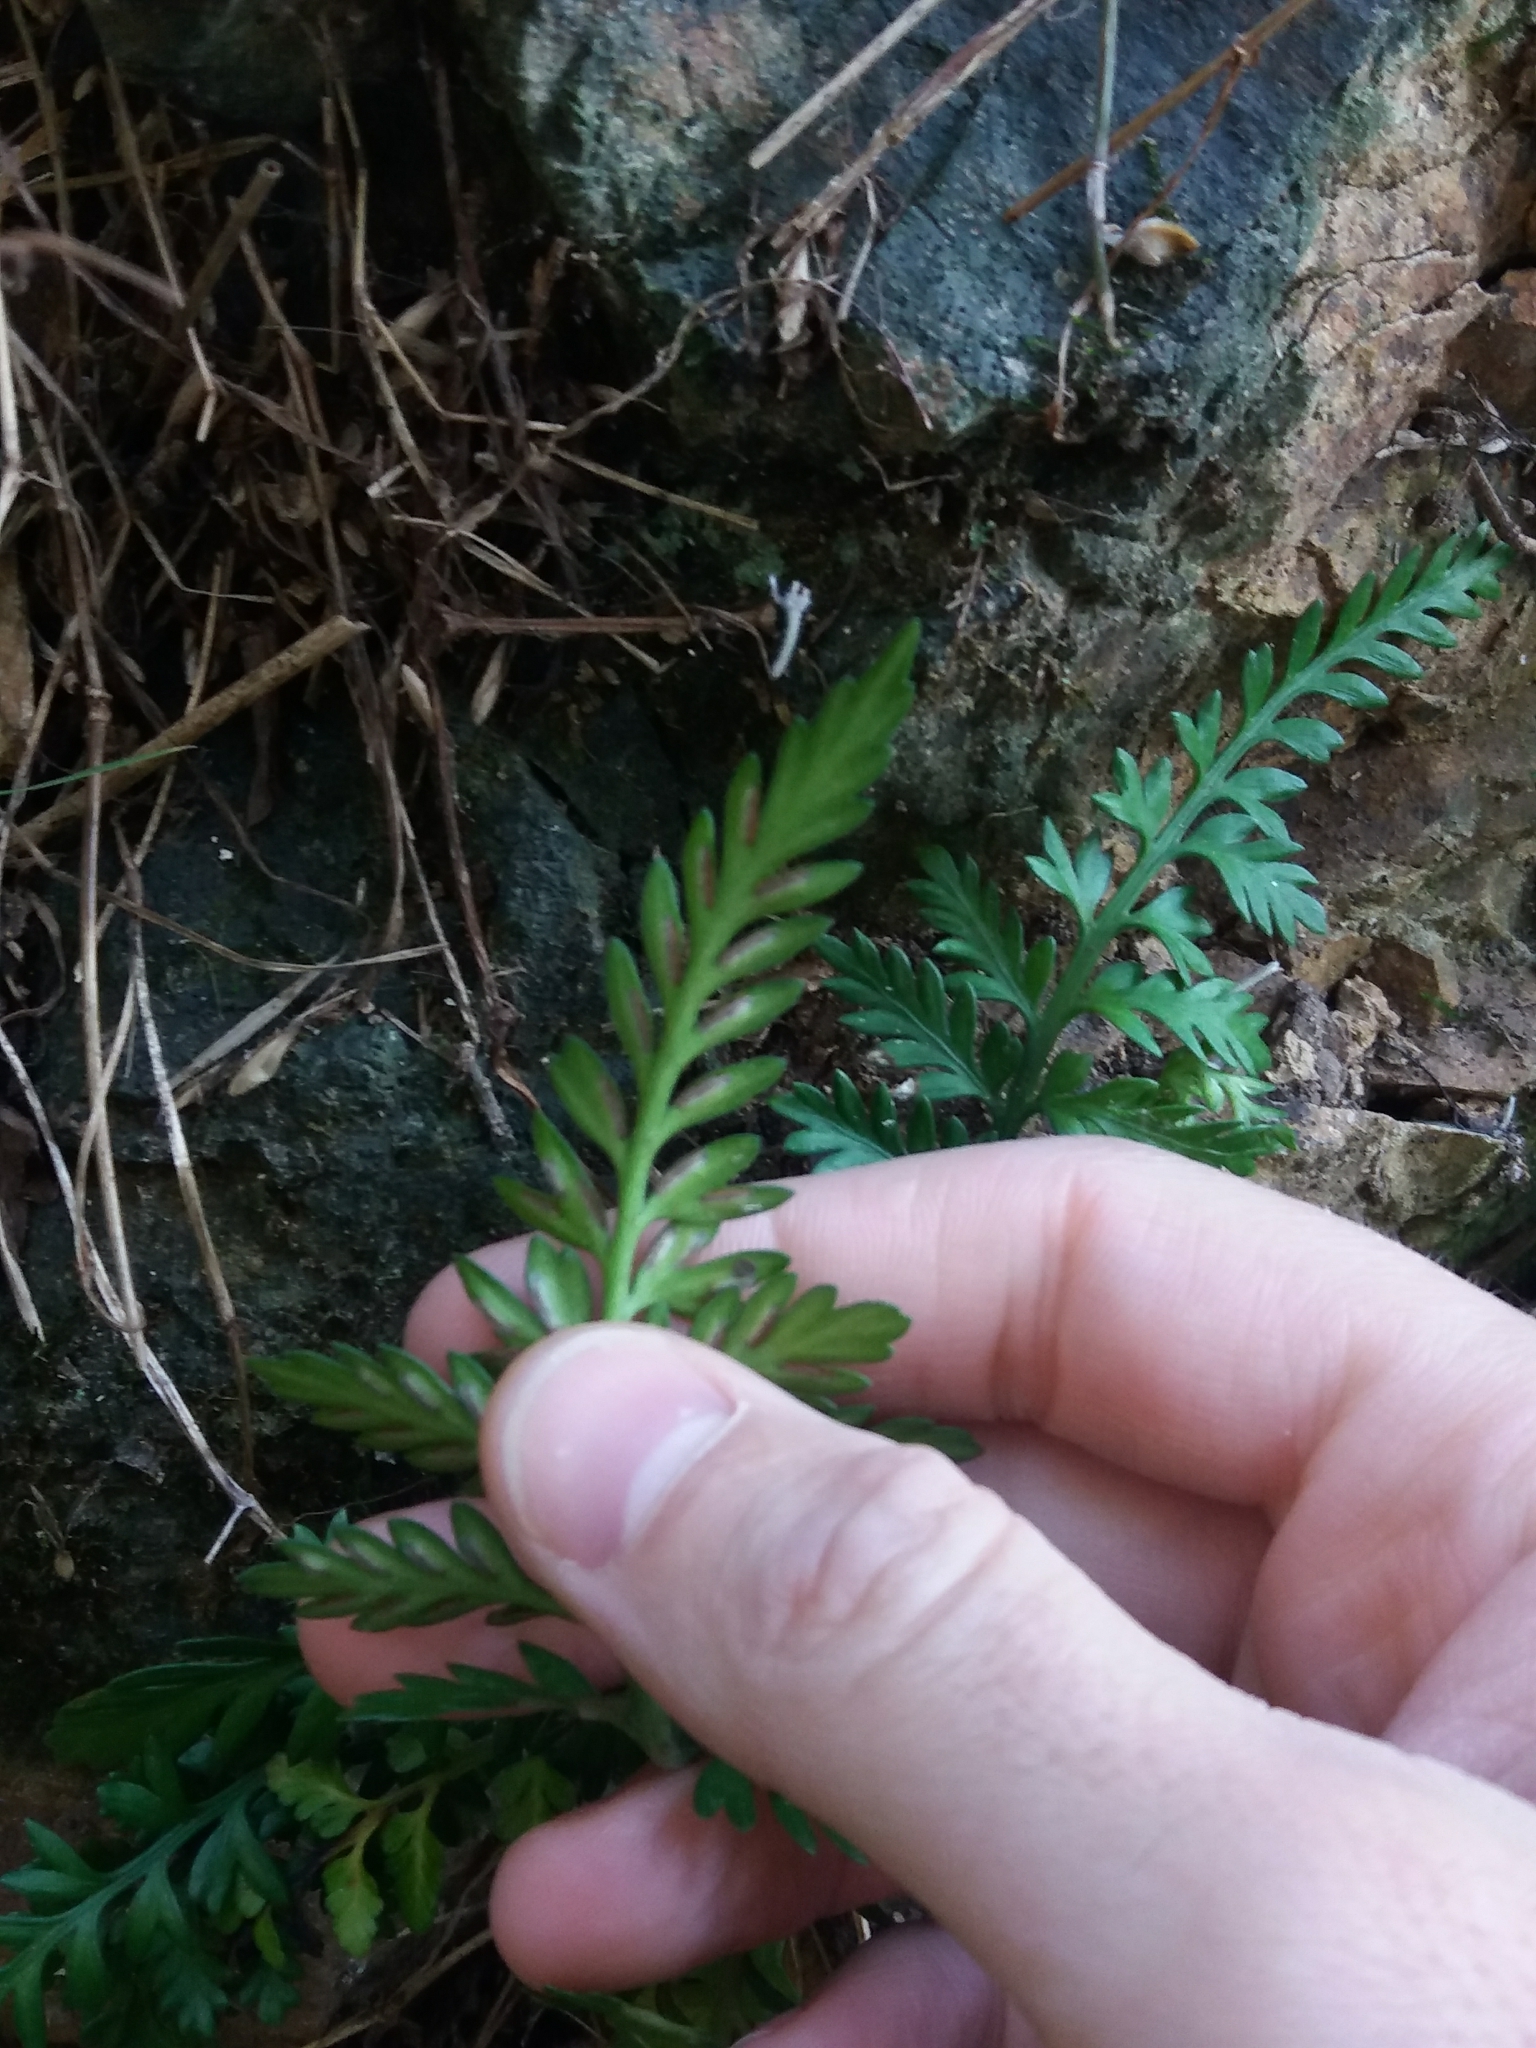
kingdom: Plantae
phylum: Tracheophyta
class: Polypodiopsida
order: Polypodiales
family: Aspleniaceae
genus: Asplenium
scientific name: Asplenium appendiculatum
